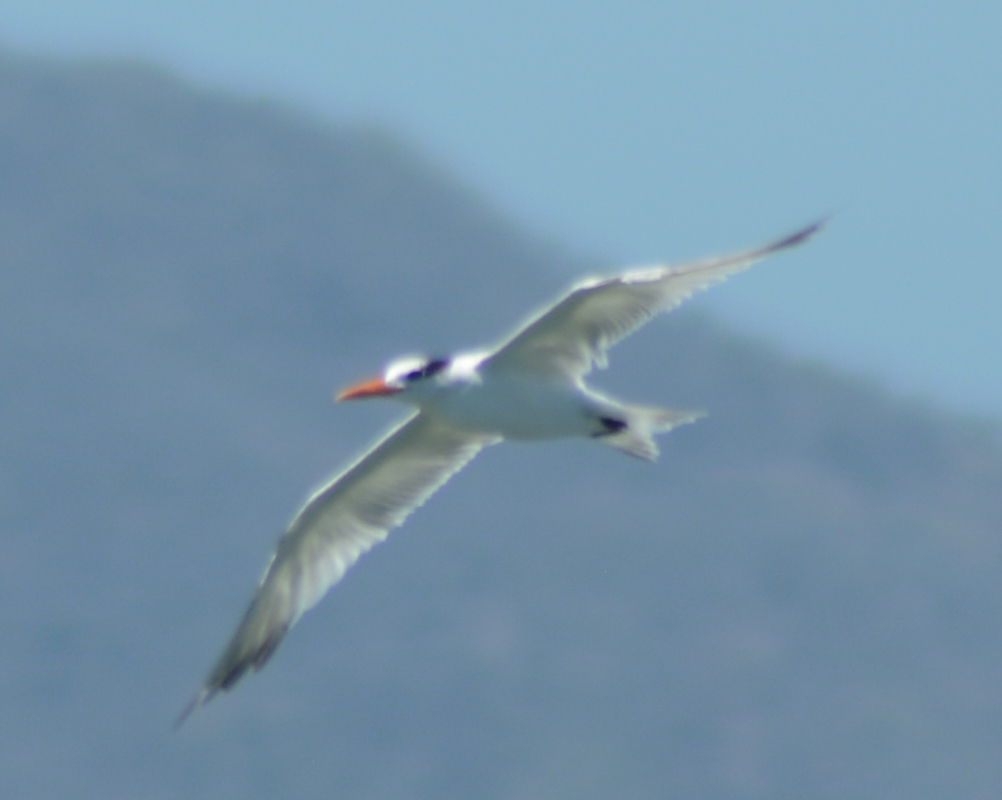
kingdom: Animalia
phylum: Chordata
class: Aves
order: Charadriiformes
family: Laridae
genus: Thalasseus
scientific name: Thalasseus maximus
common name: Royal tern
